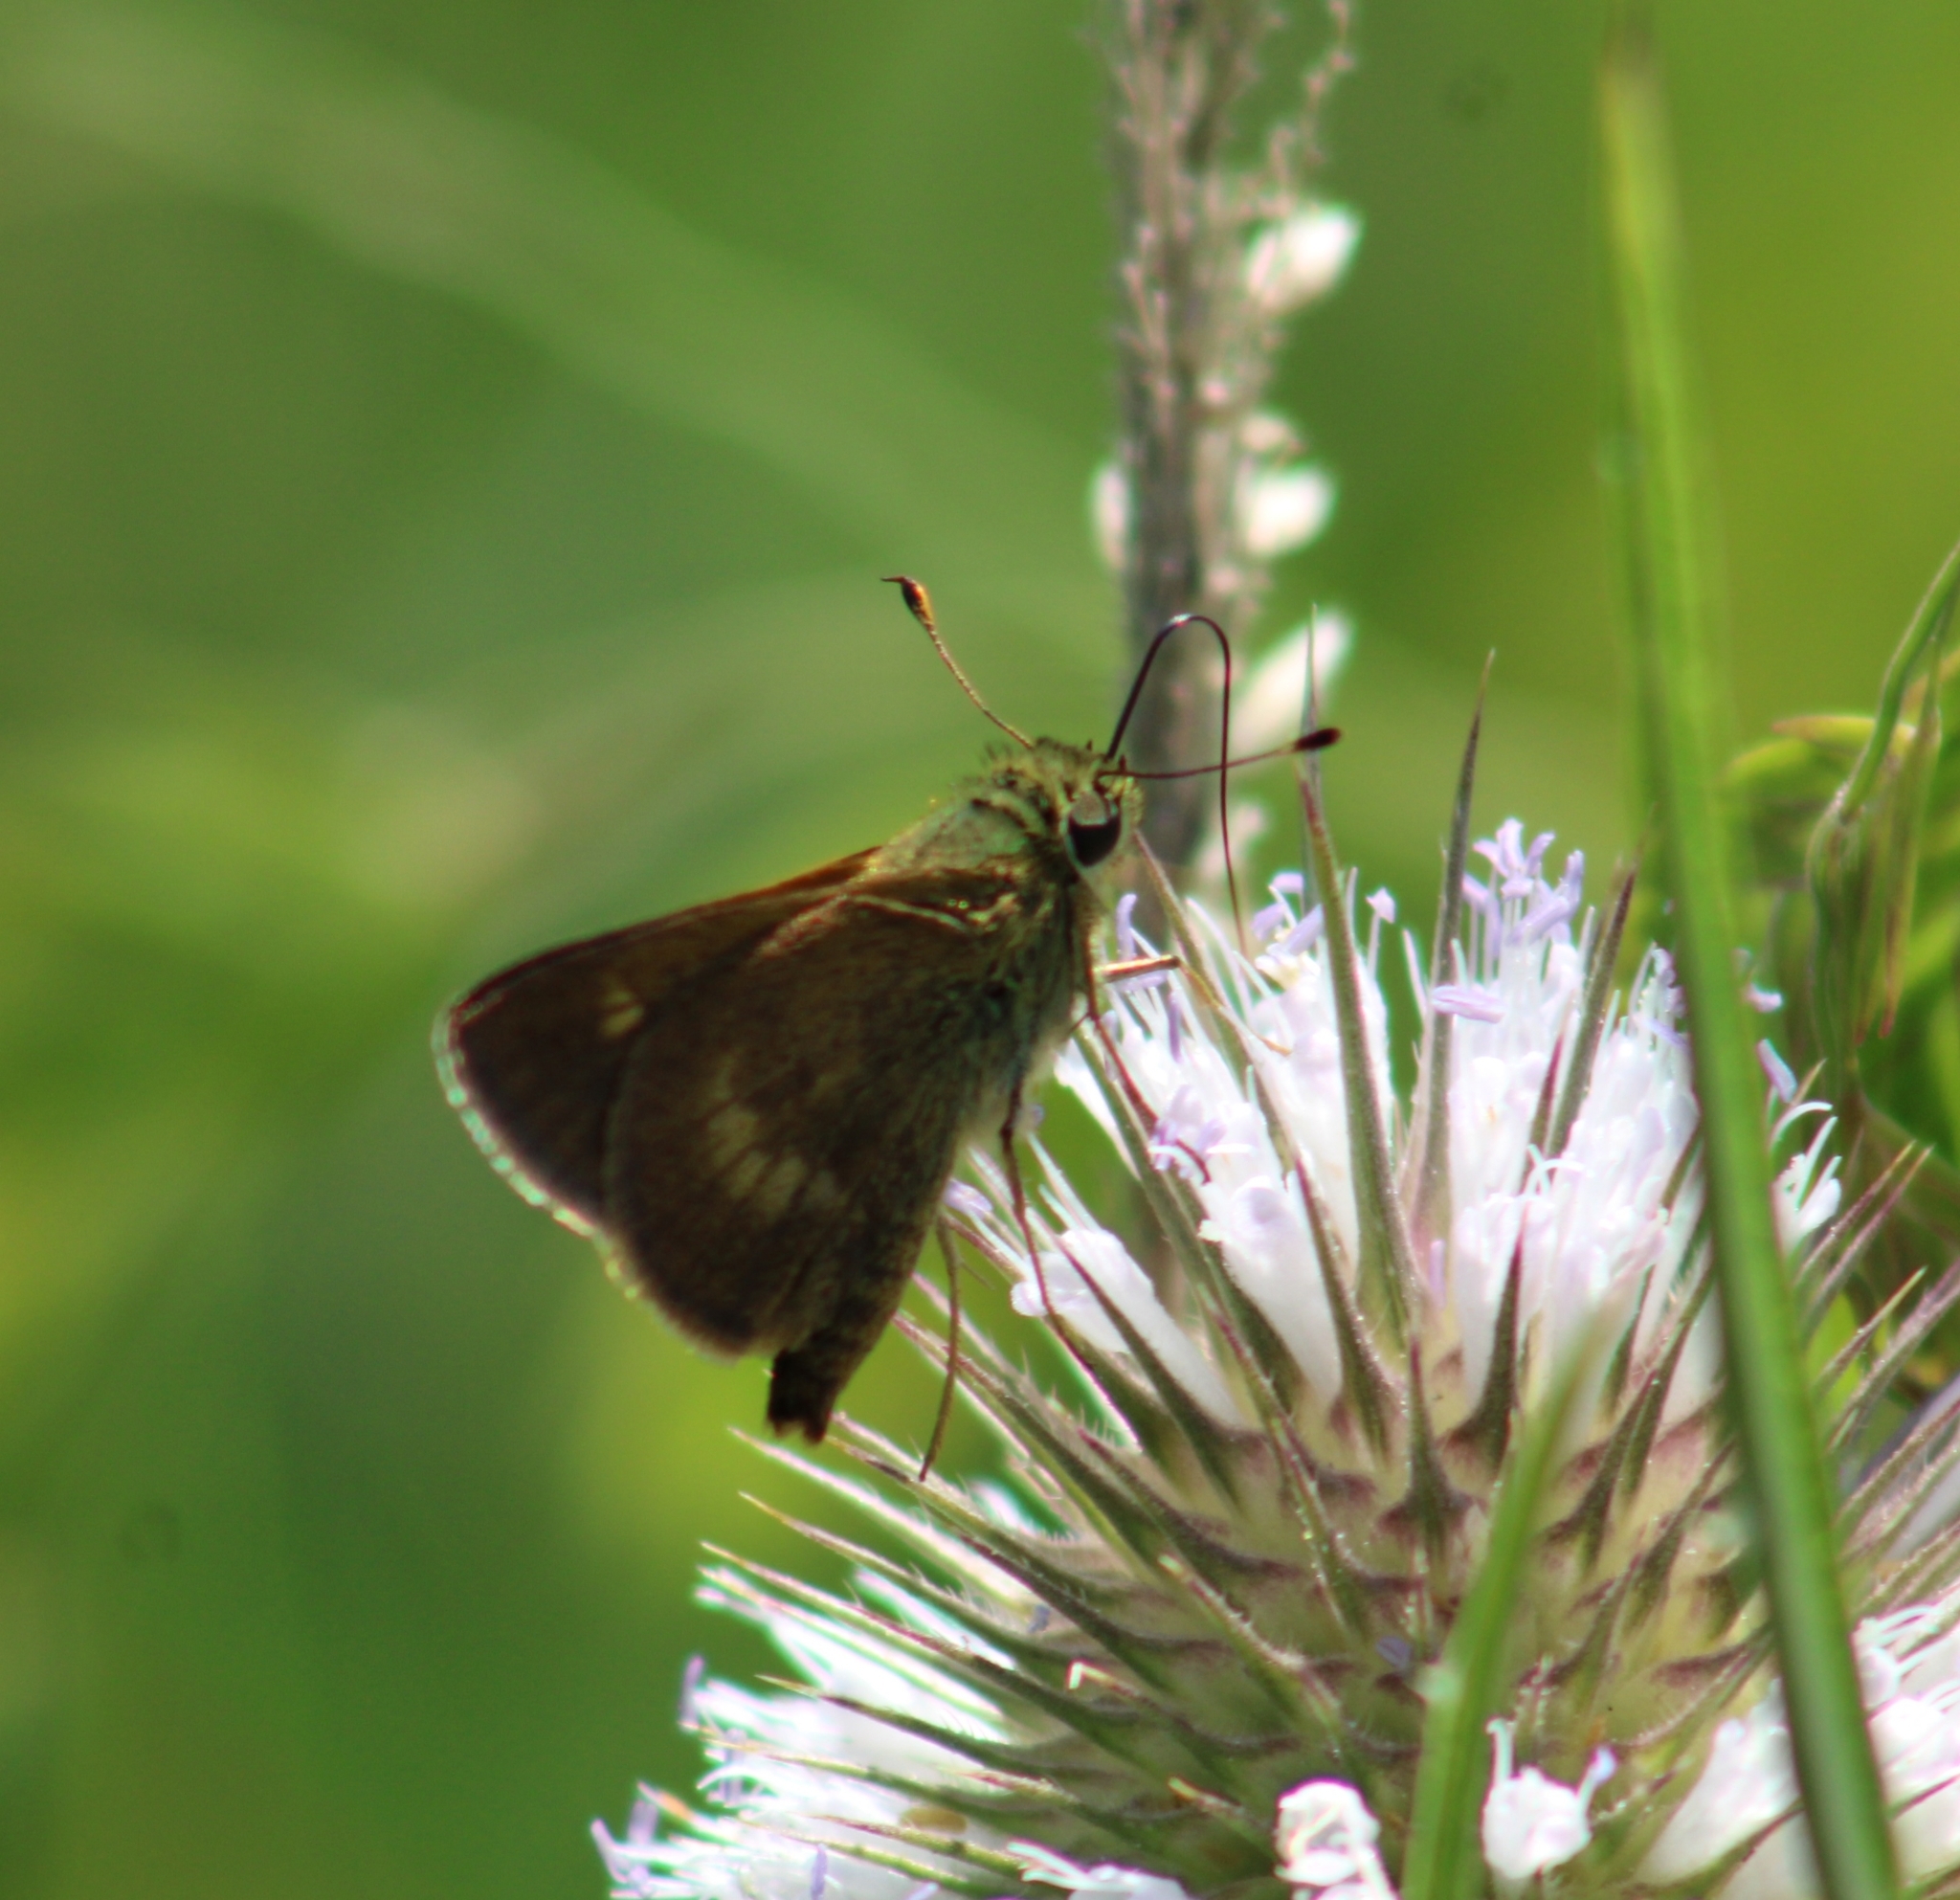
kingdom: Animalia
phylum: Arthropoda
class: Insecta
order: Lepidoptera
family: Hesperiidae
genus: Polites
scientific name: Polites egeremet
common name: Northern broken-dash
